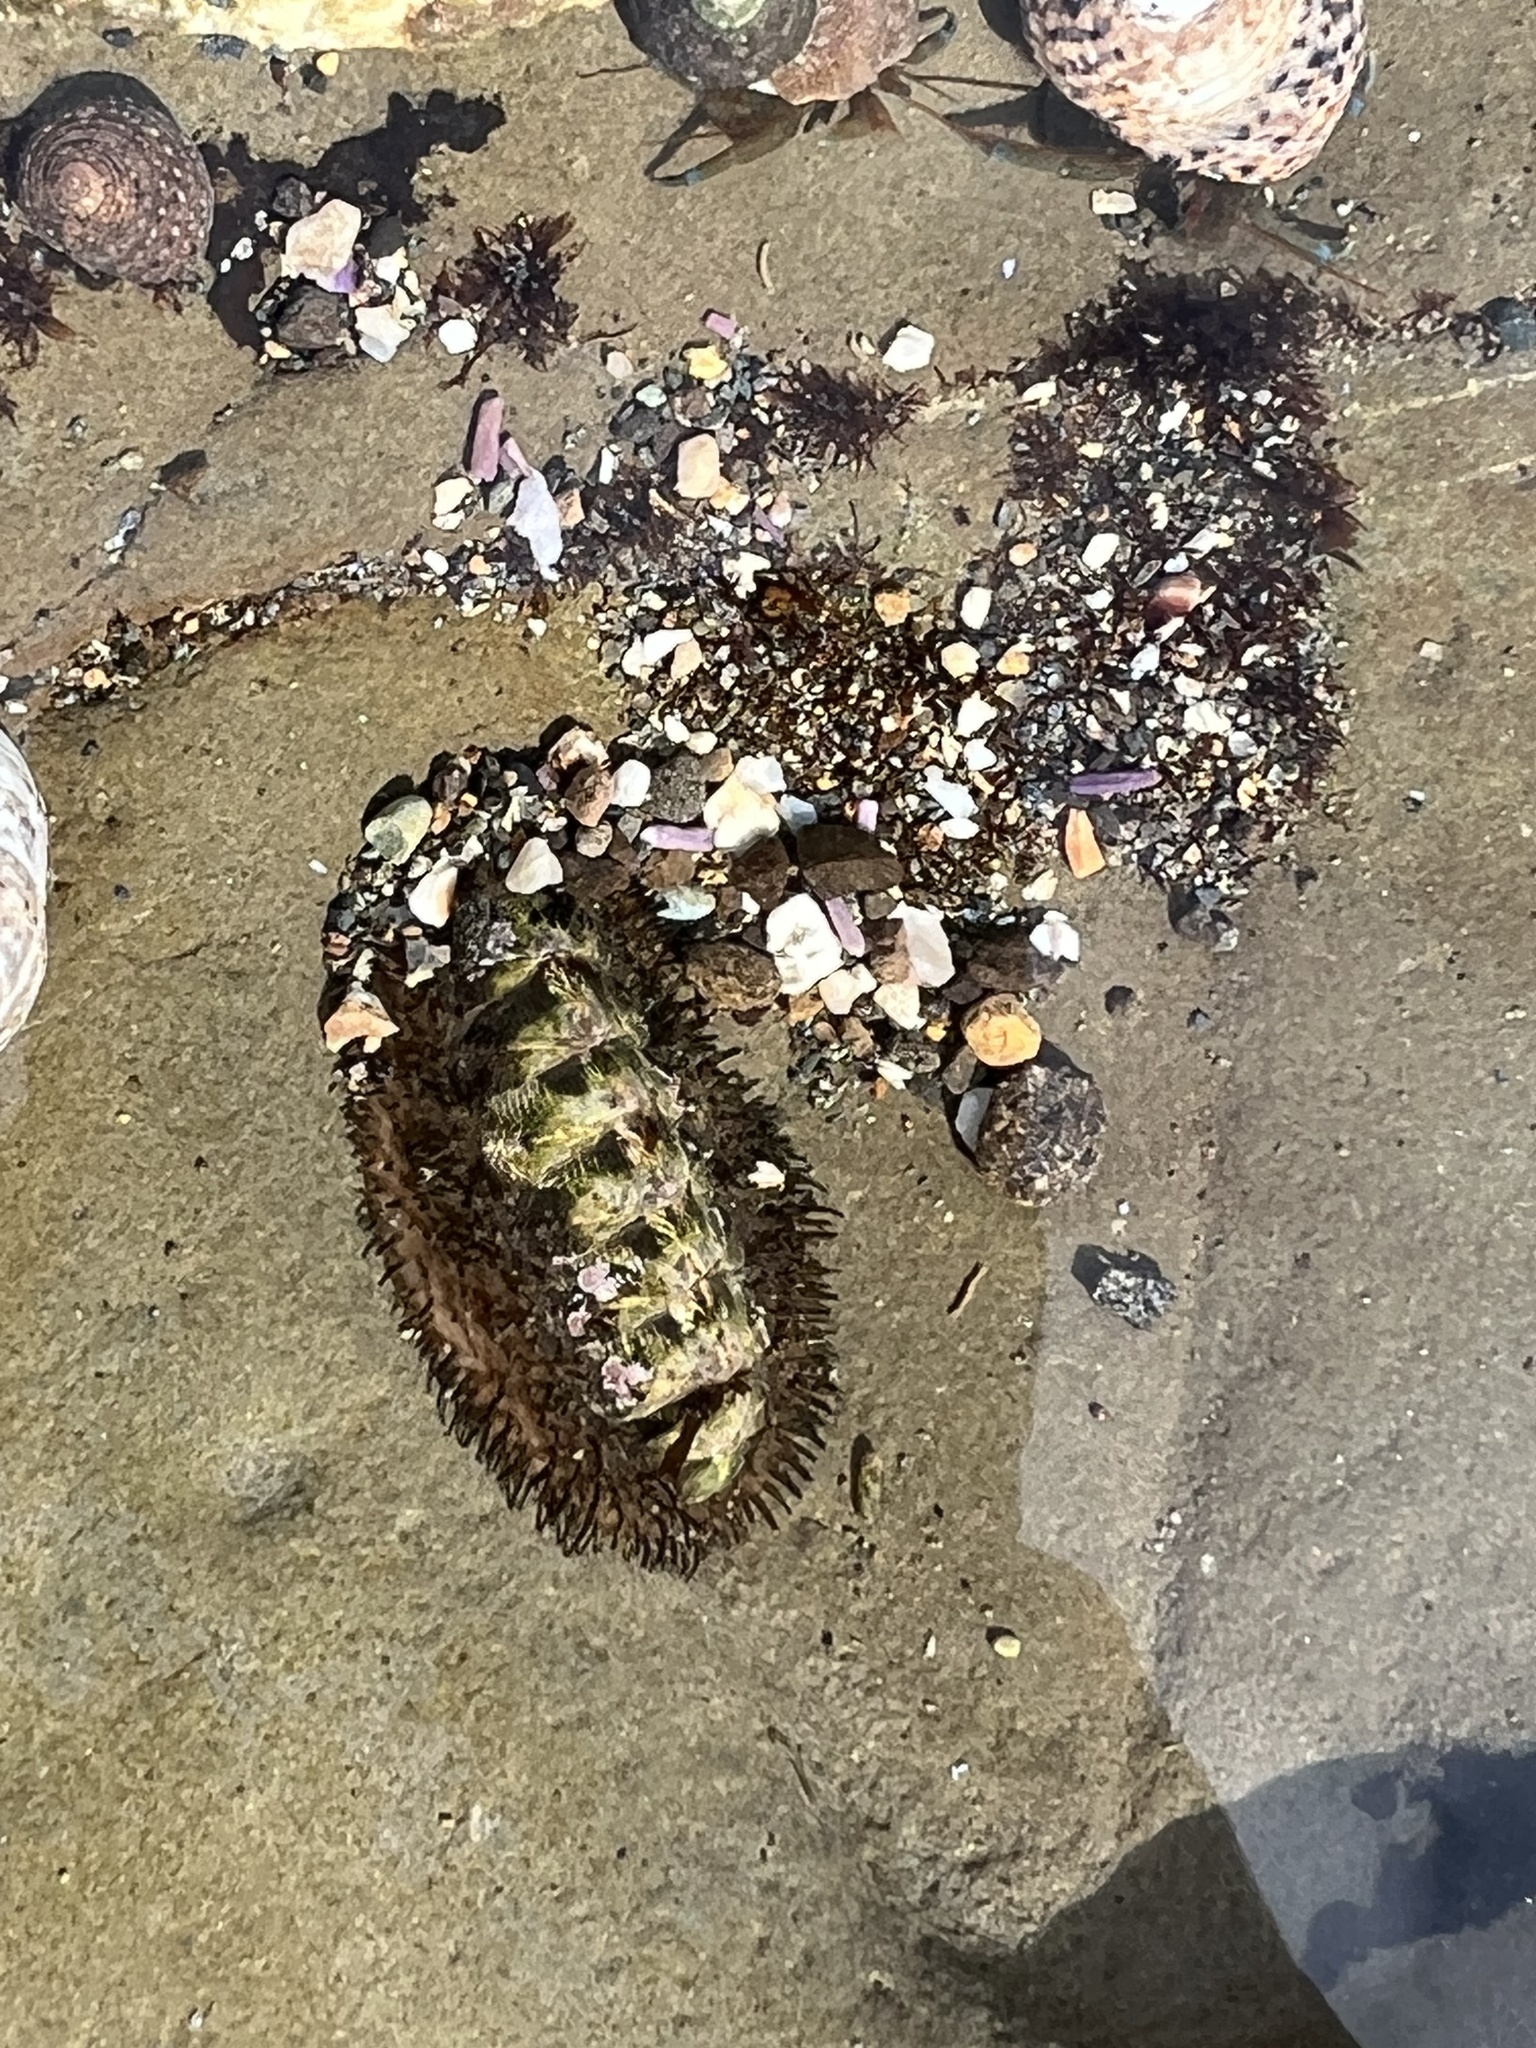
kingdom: Animalia
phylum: Mollusca
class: Polyplacophora
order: Chitonida
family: Mopaliidae
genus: Mopalia
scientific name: Mopalia muscosa
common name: Mossy chiton
